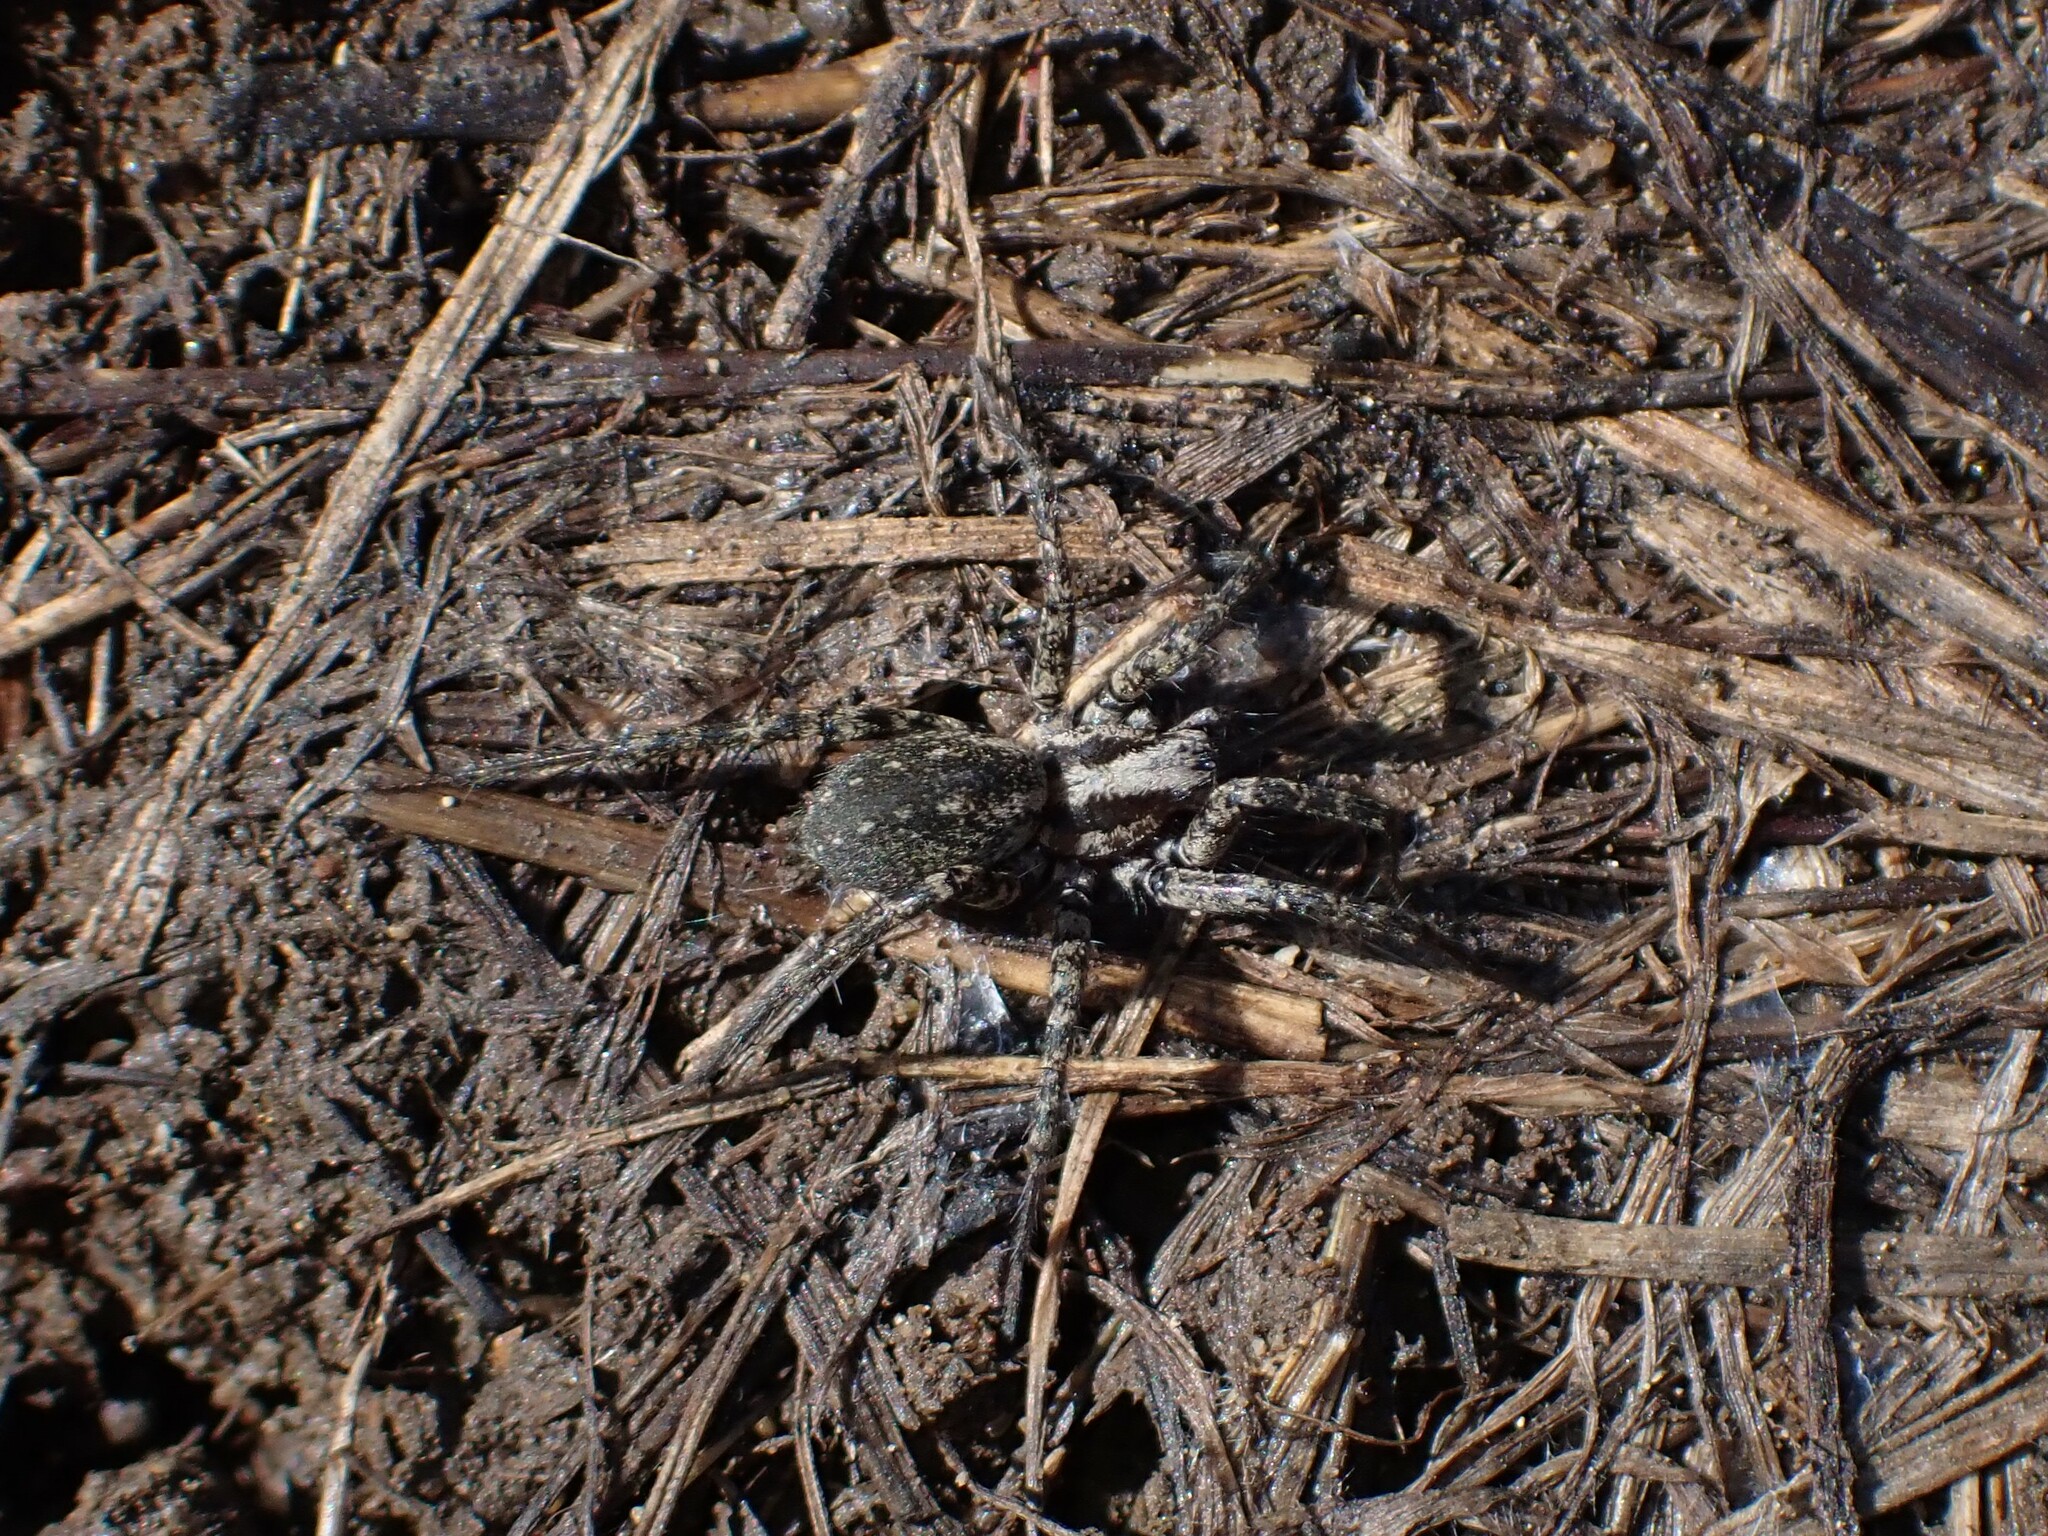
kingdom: Animalia
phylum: Arthropoda
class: Arachnida
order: Araneae
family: Agelenidae
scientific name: Agelenidae
